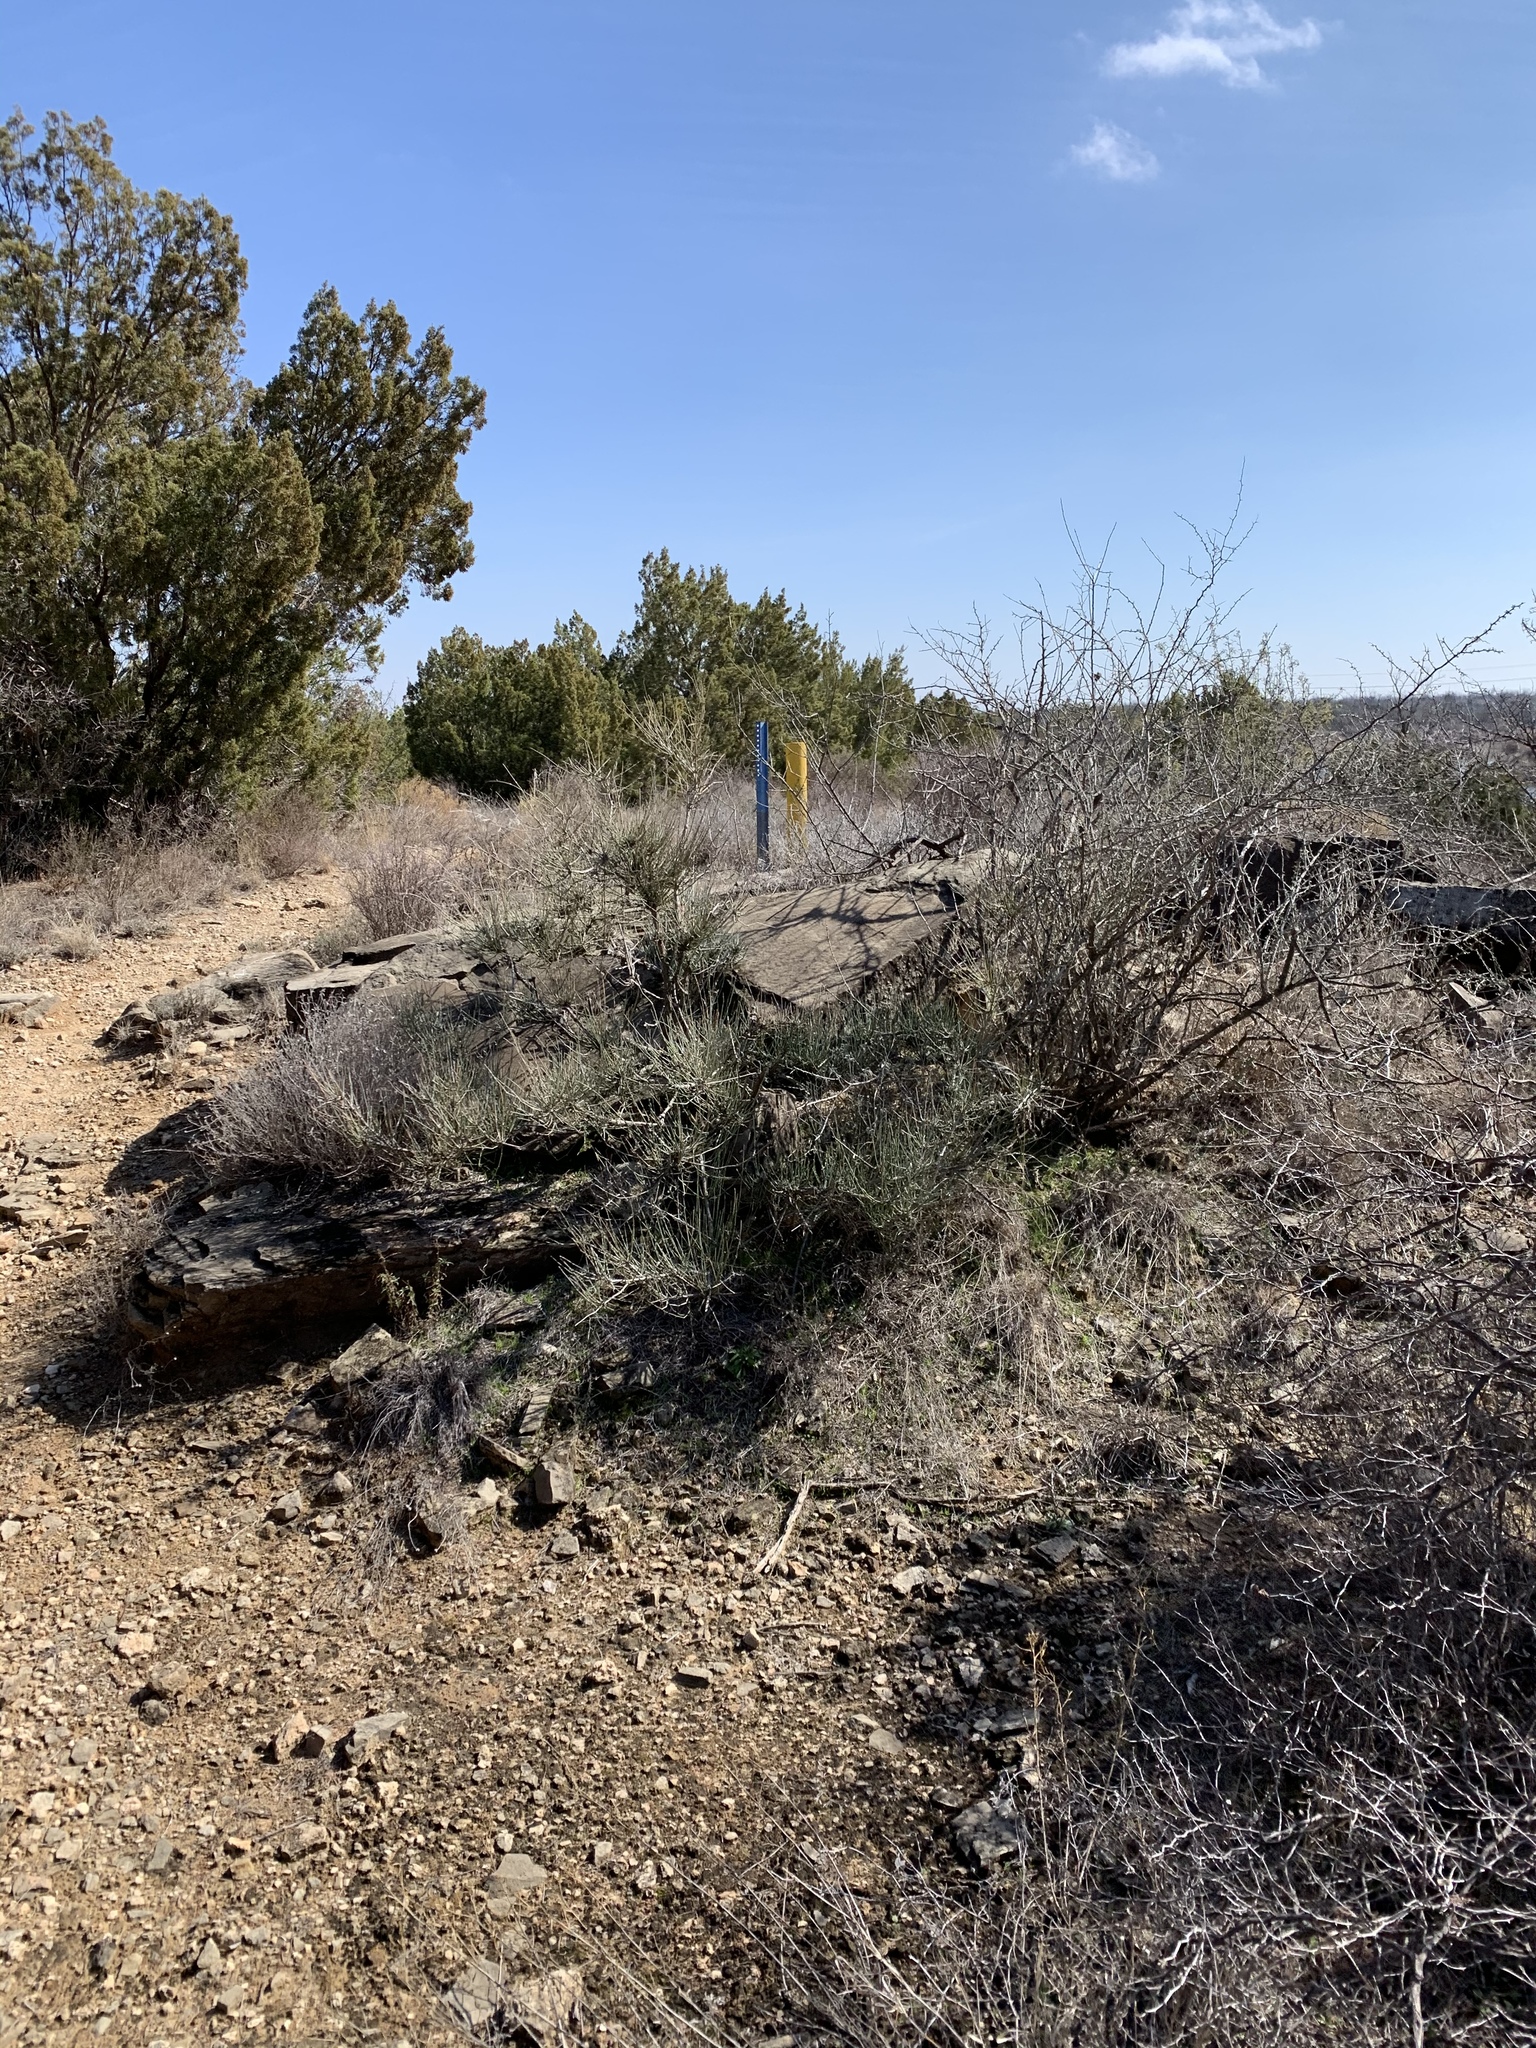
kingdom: Plantae
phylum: Tracheophyta
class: Gnetopsida
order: Ephedrales
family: Ephedraceae
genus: Ephedra
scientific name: Ephedra antisyphilitica
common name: Clipweed
